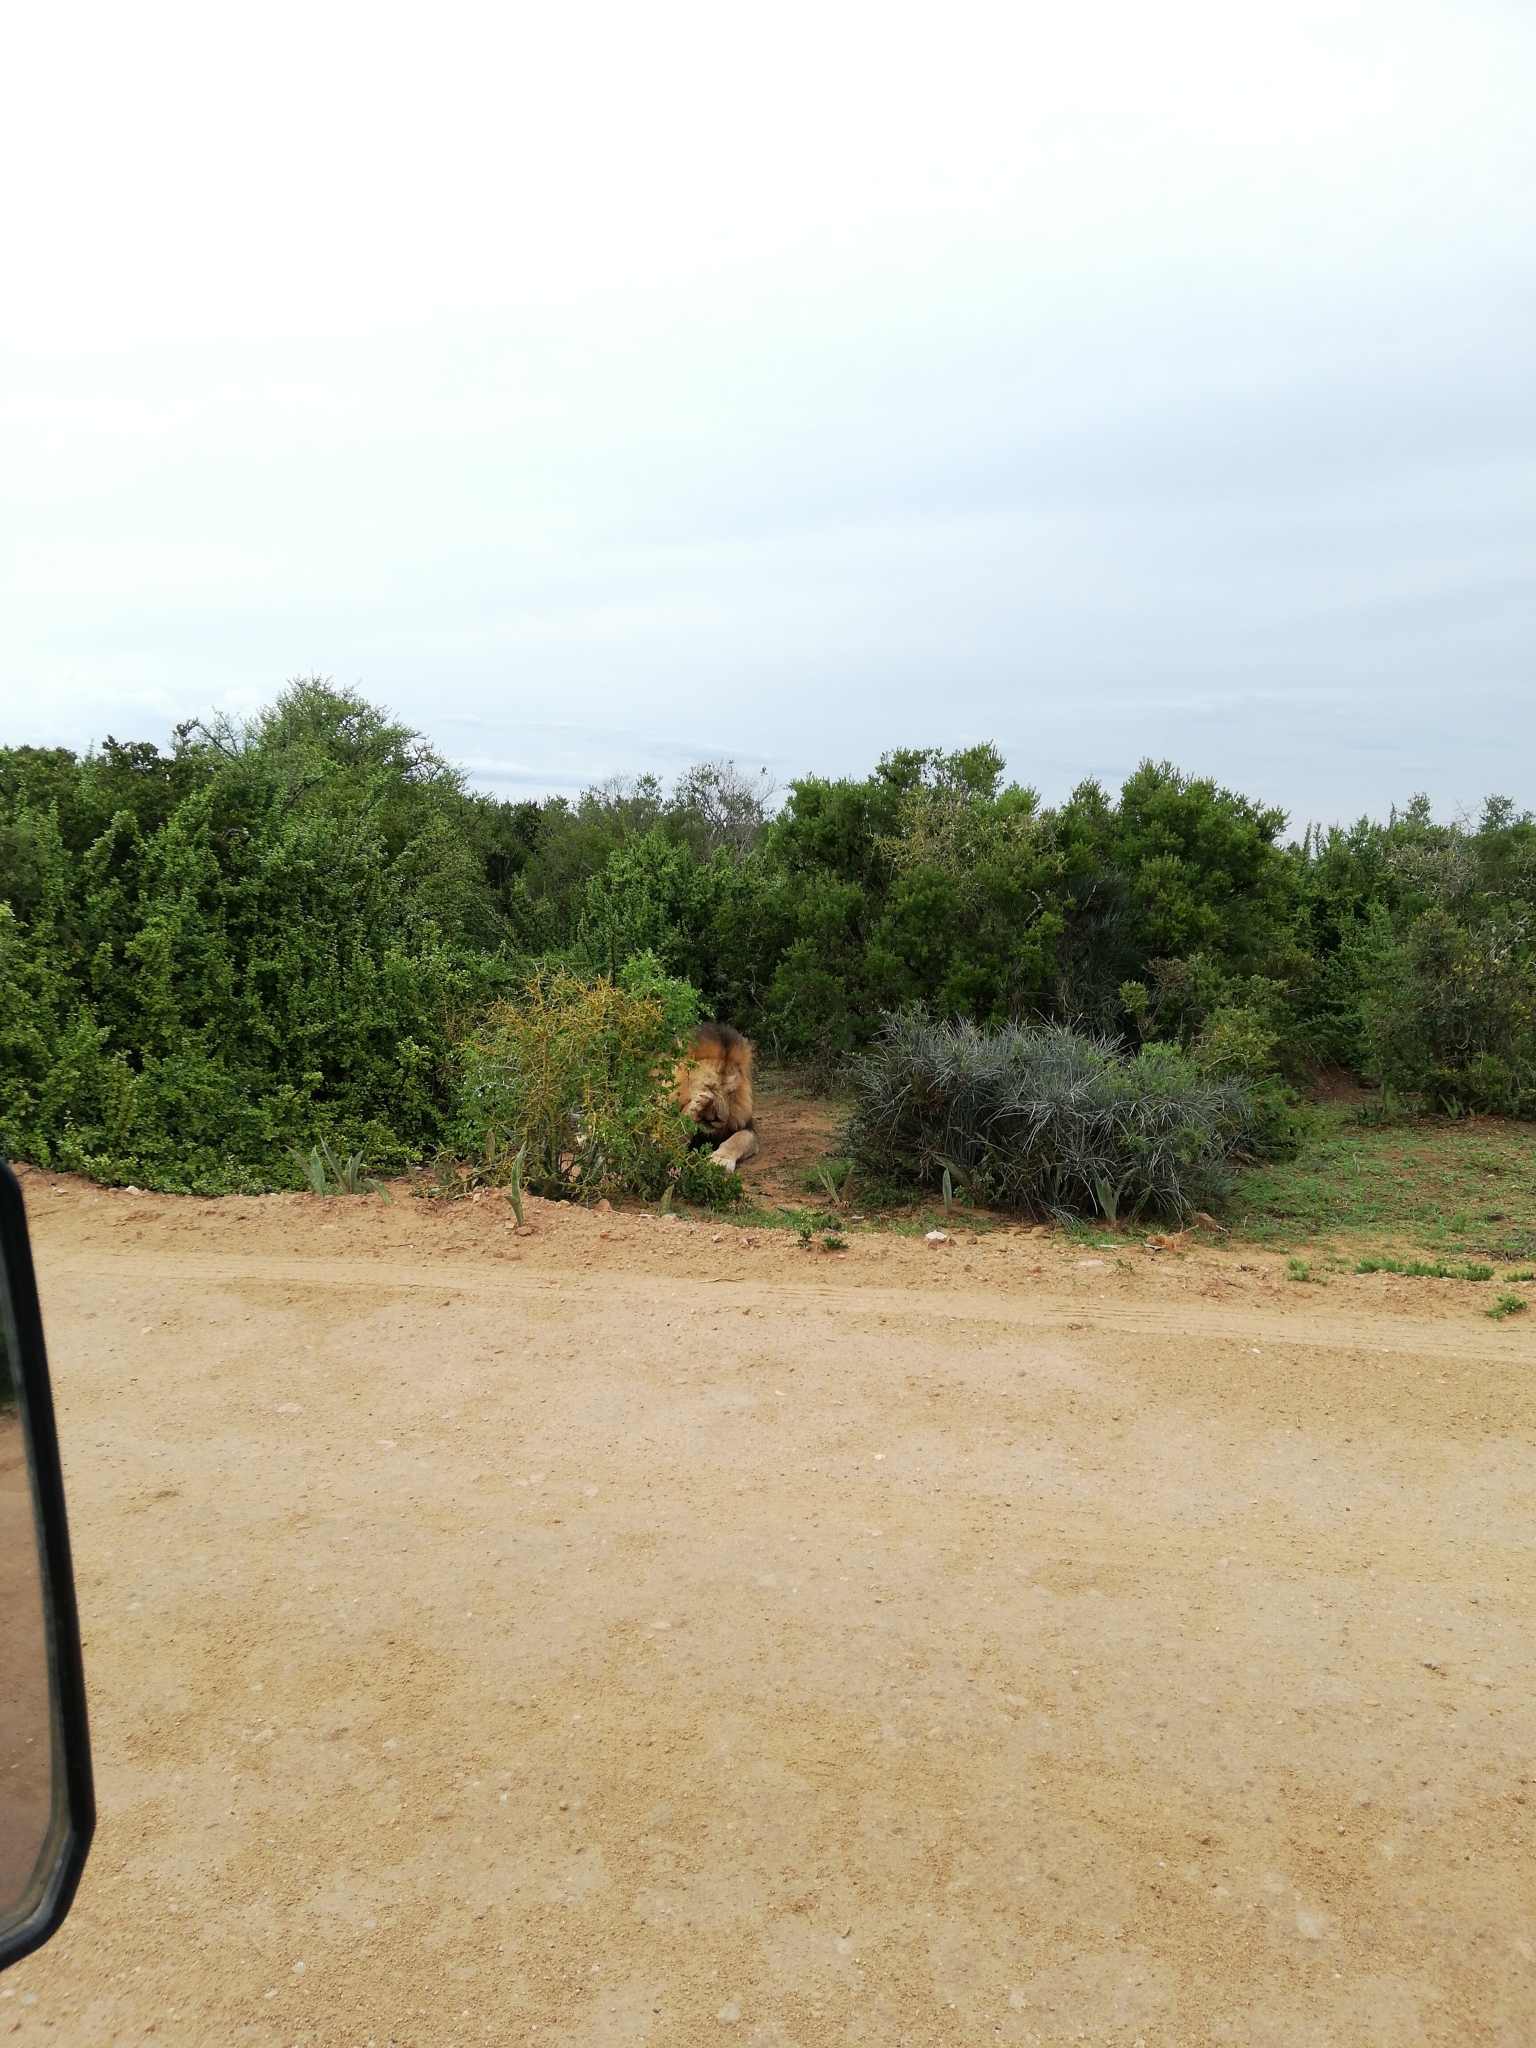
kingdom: Animalia
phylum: Chordata
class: Mammalia
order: Carnivora
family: Felidae
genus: Panthera
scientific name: Panthera leo
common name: Lion
